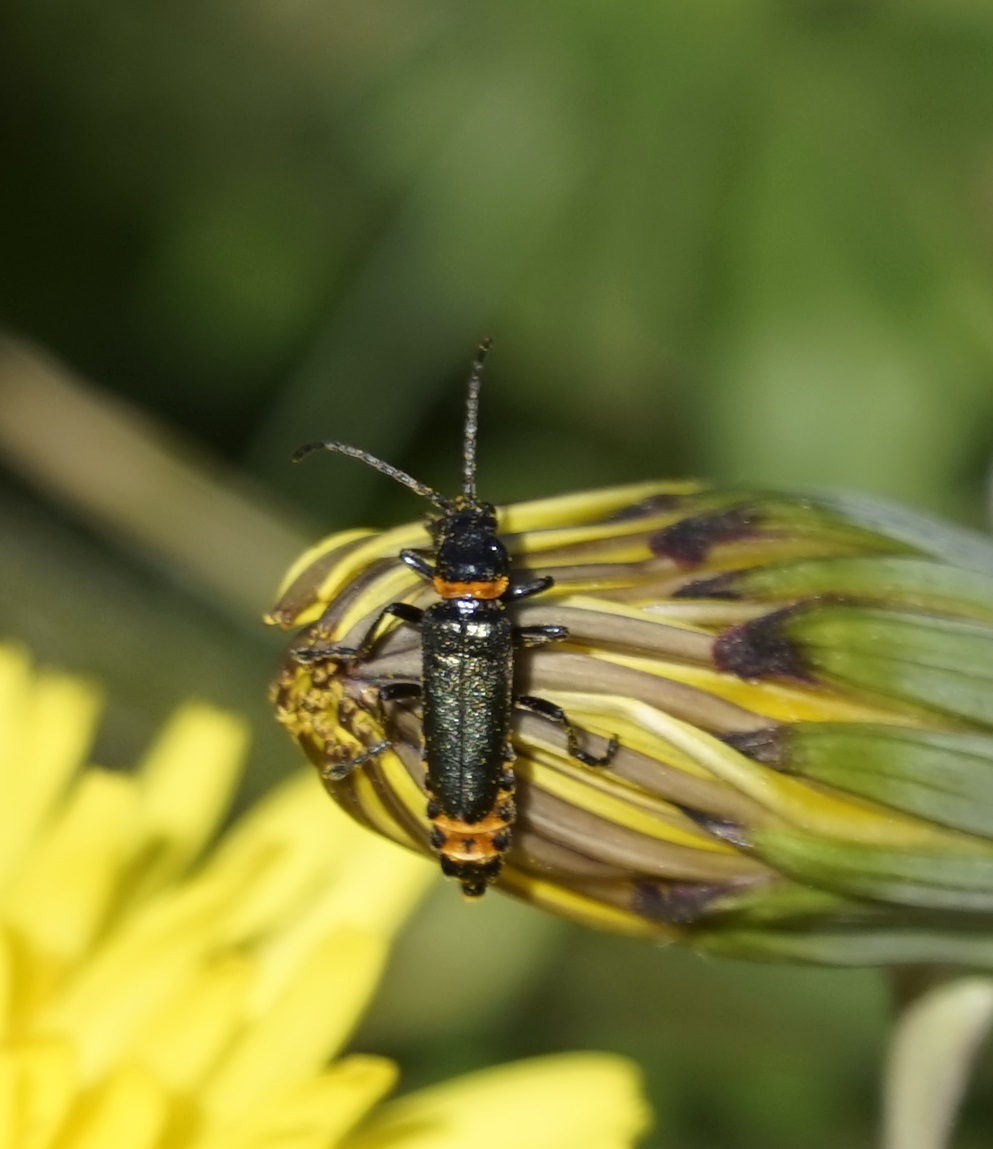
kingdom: Animalia
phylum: Arthropoda
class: Insecta
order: Coleoptera
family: Cantharidae
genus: Chauliognathus
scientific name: Chauliognathus
